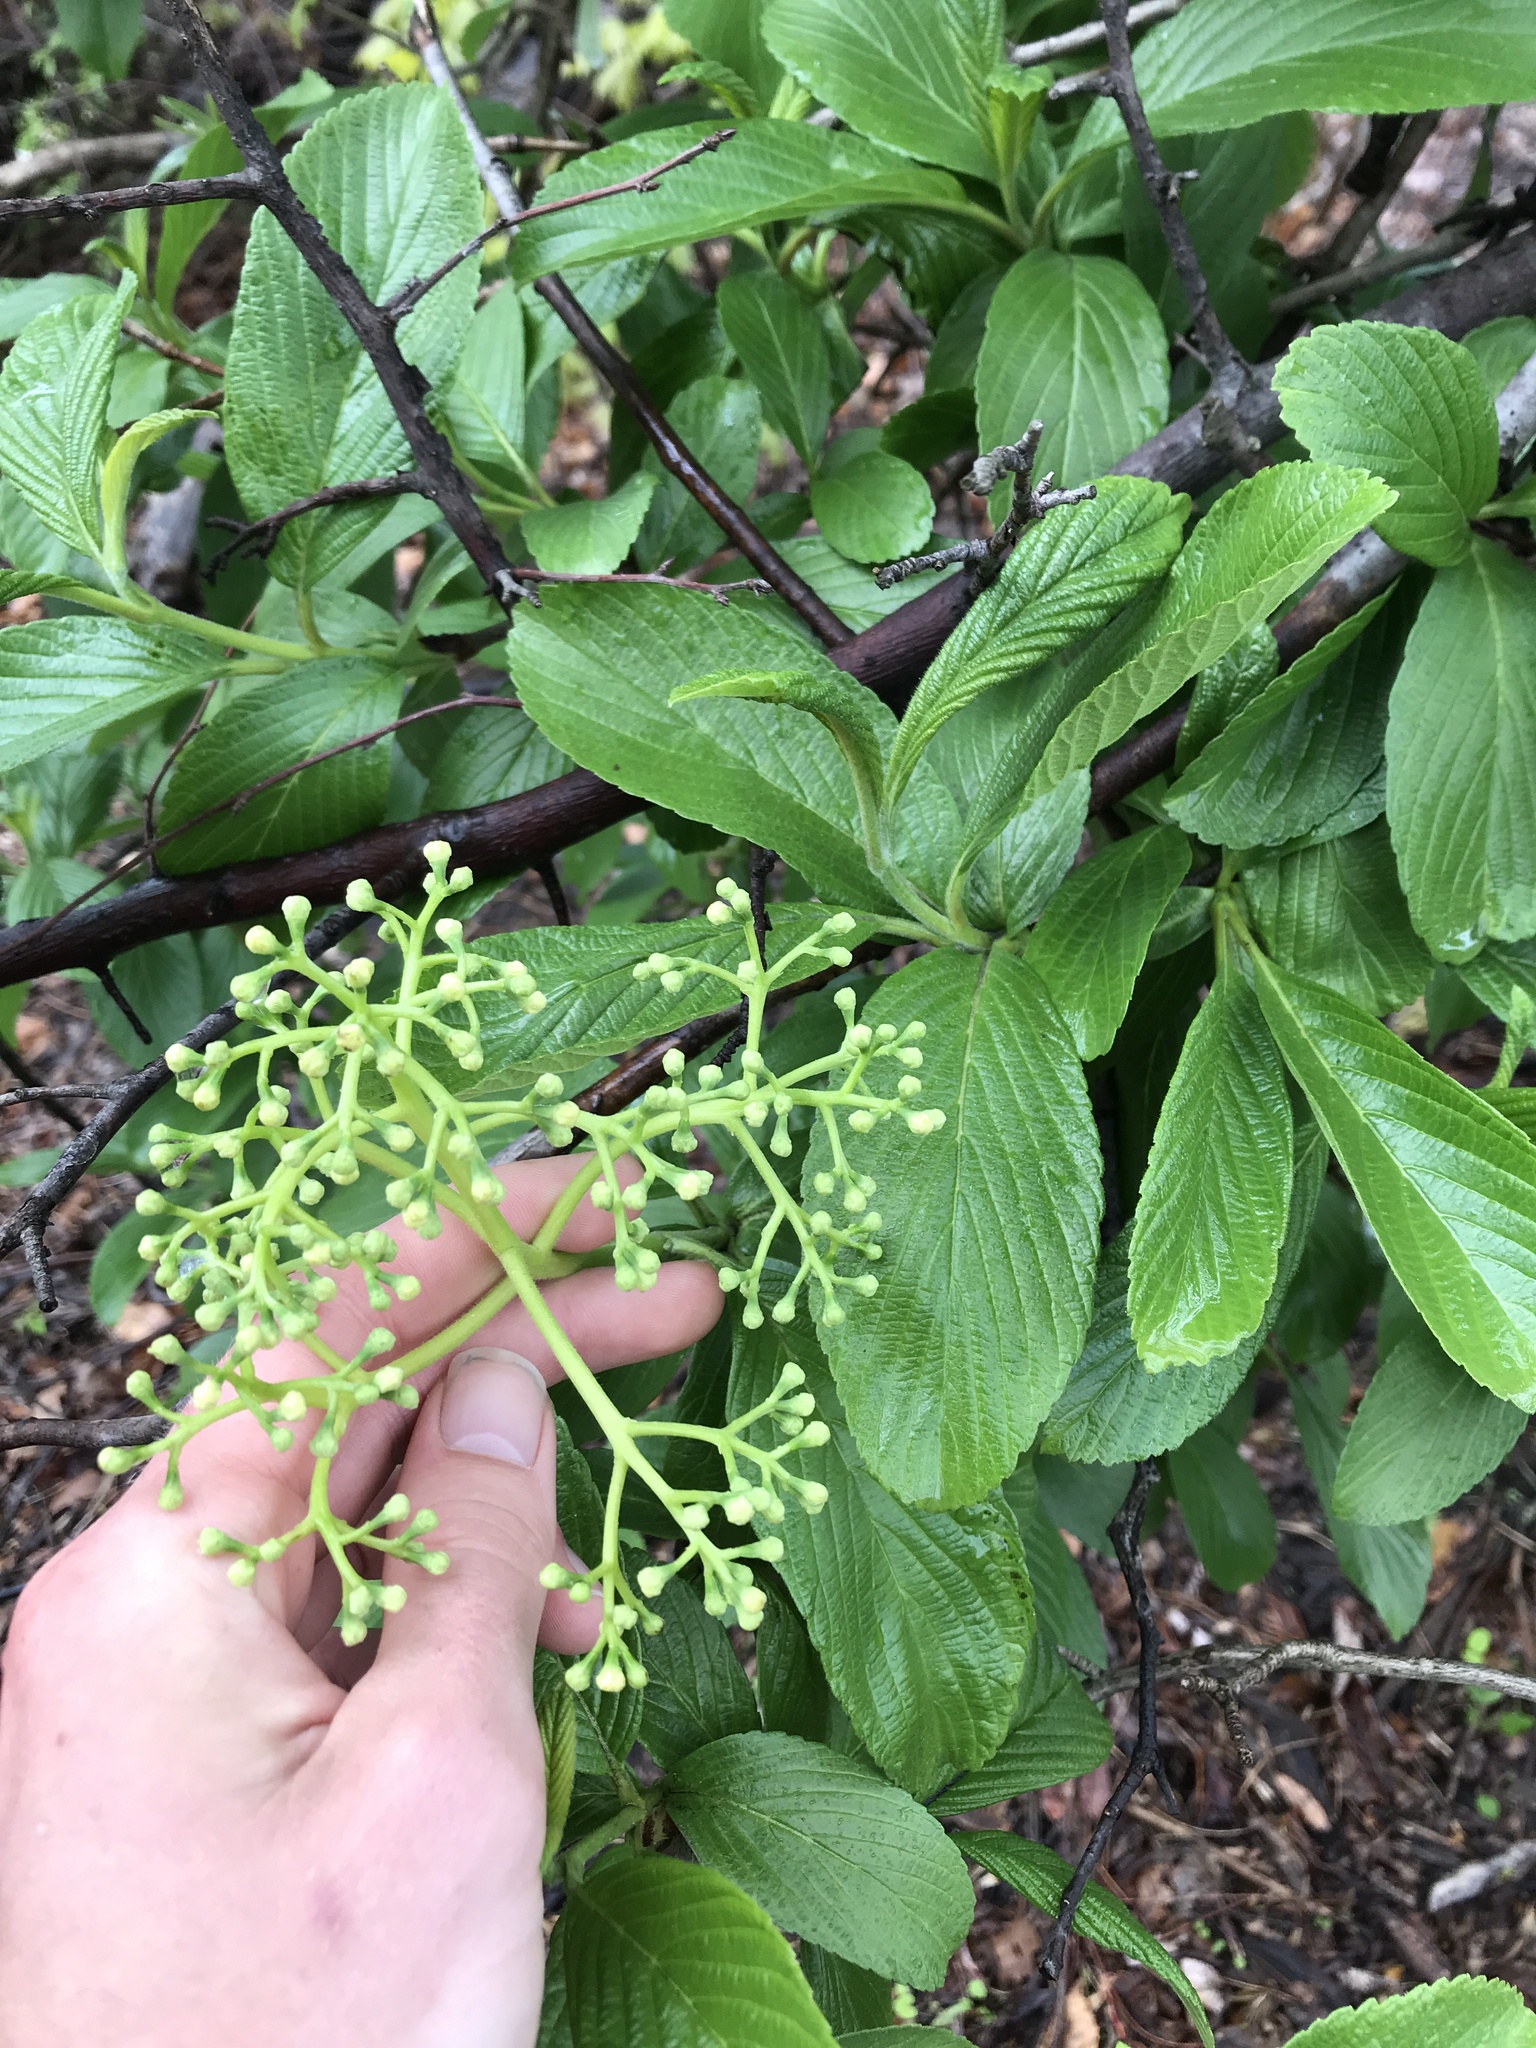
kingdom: Plantae
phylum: Tracheophyta
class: Magnoliopsida
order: Dipsacales
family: Viburnaceae
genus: Viburnum
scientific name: Viburnum sieboldii
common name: Siebold's arrowwood
